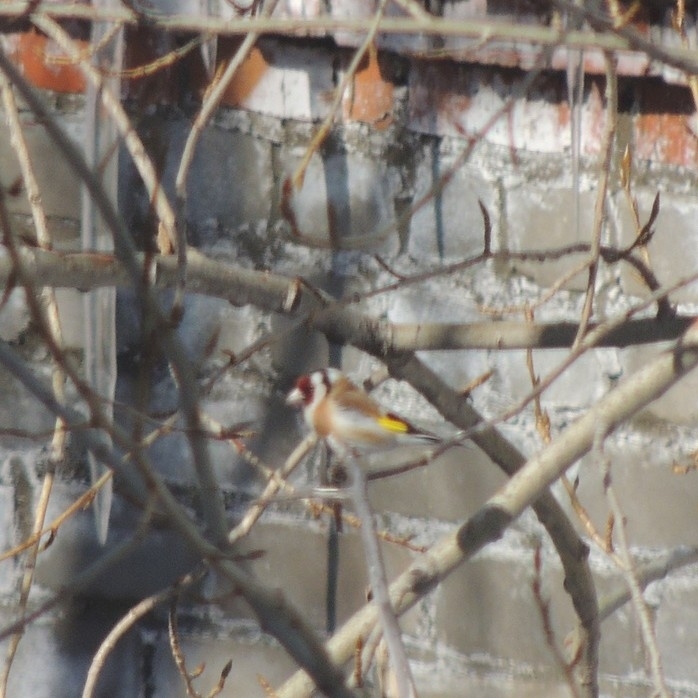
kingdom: Animalia
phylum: Chordata
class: Aves
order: Passeriformes
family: Fringillidae
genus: Carduelis
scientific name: Carduelis carduelis
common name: European goldfinch
